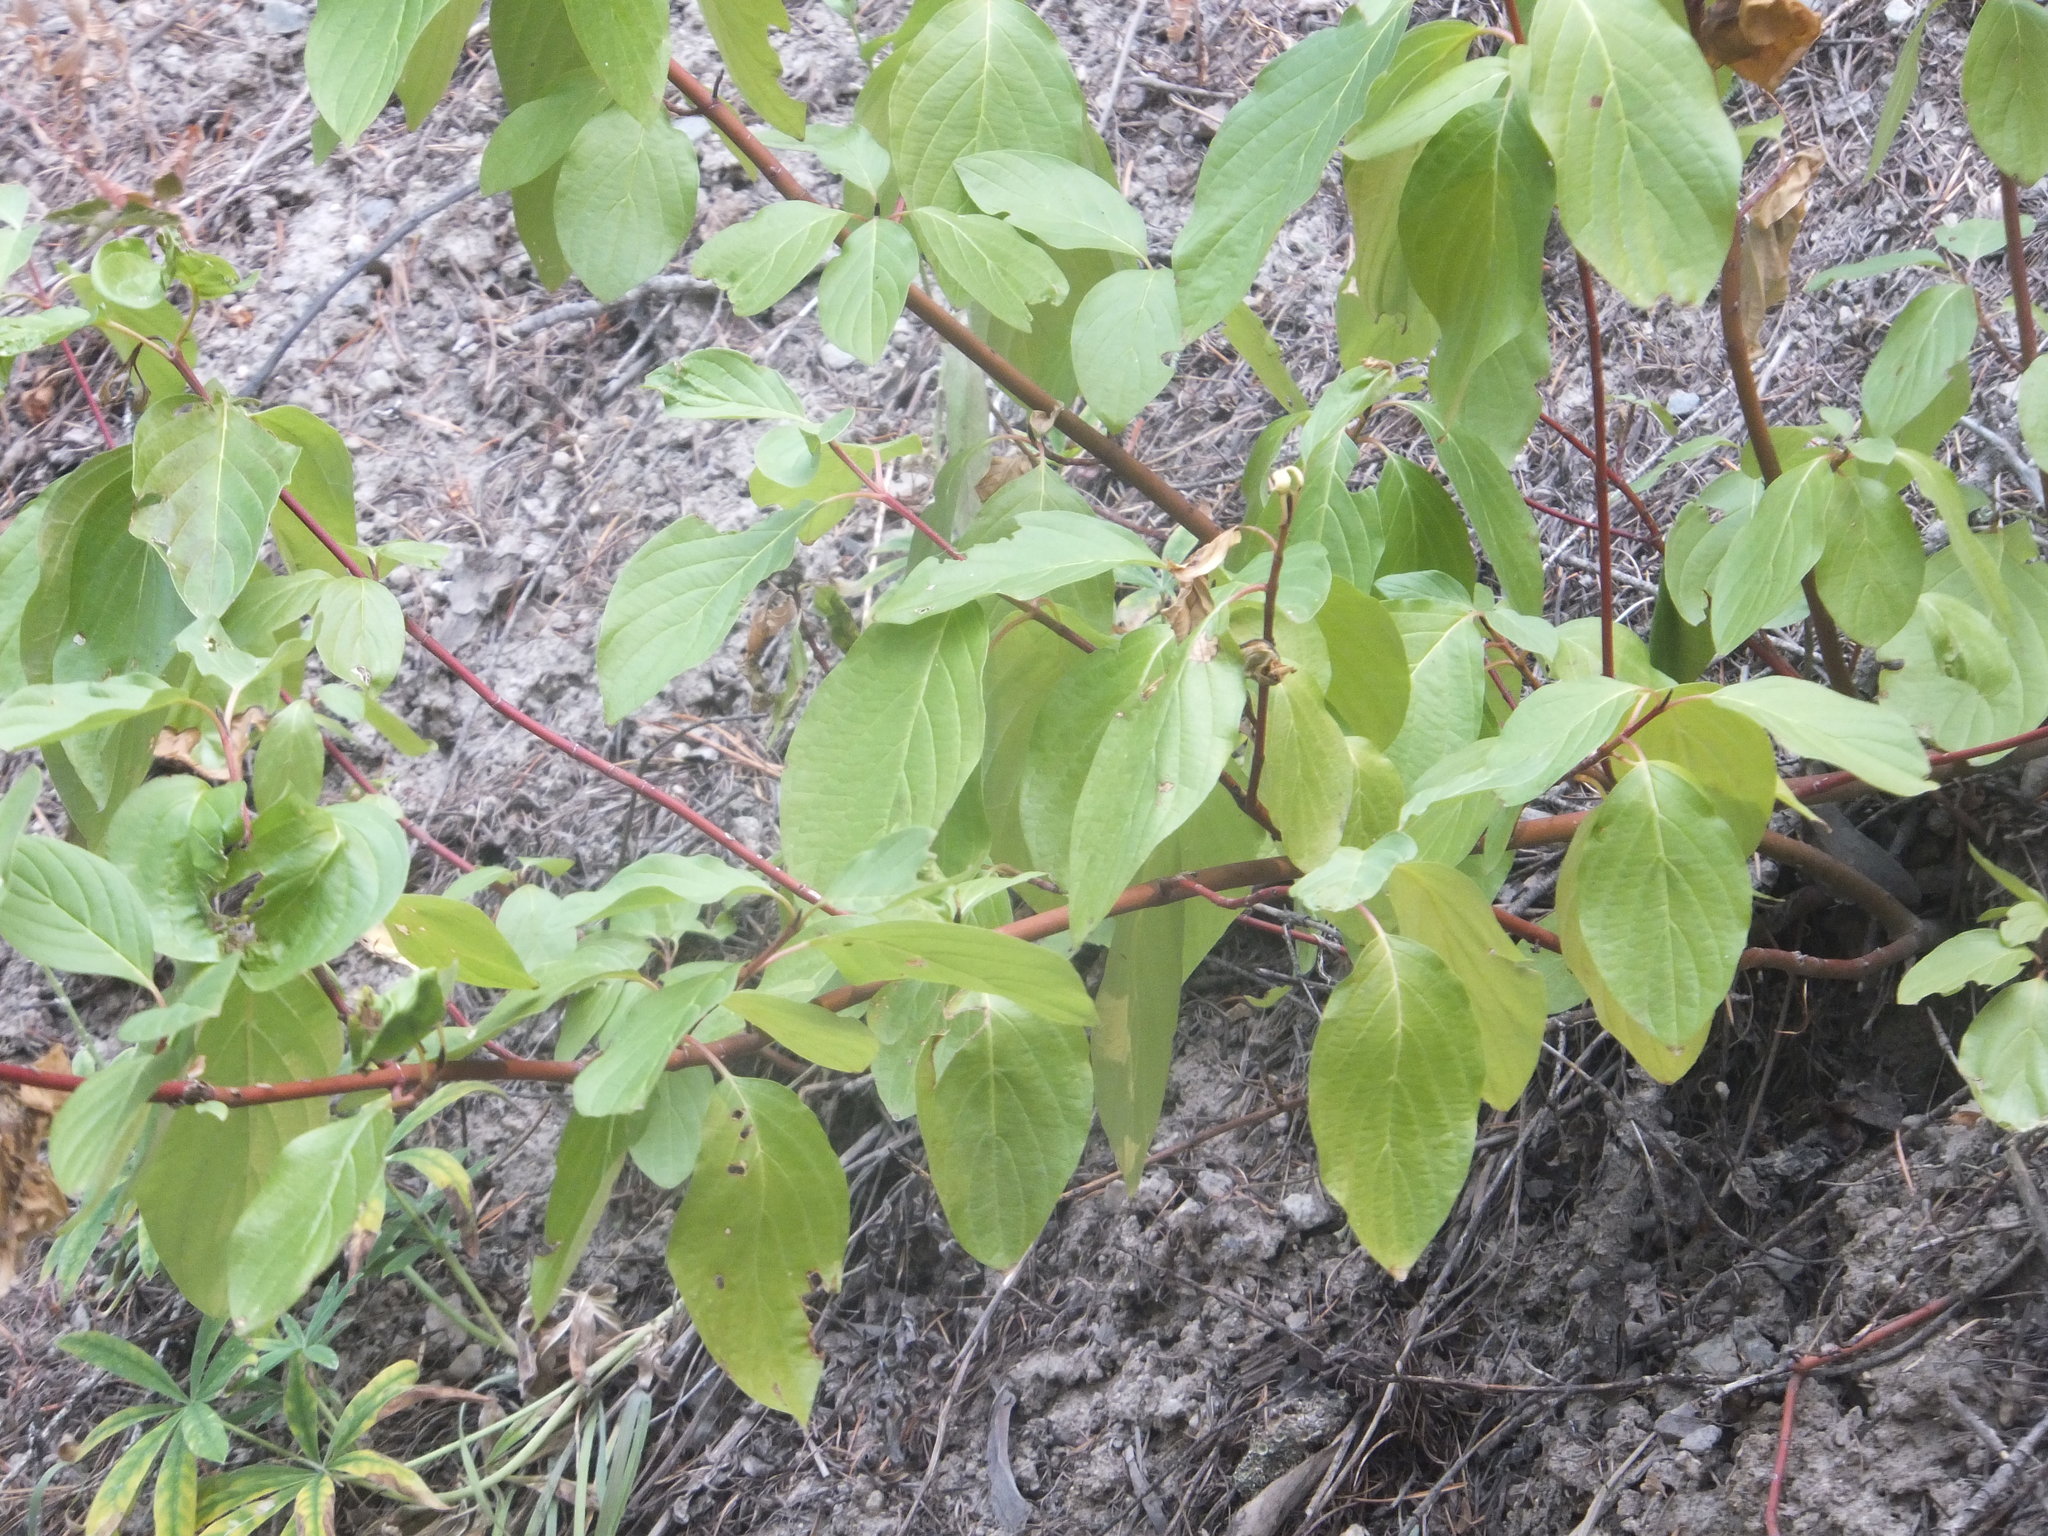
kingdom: Plantae
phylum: Tracheophyta
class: Magnoliopsida
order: Cornales
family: Cornaceae
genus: Cornus
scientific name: Cornus sericea
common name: Red-osier dogwood
